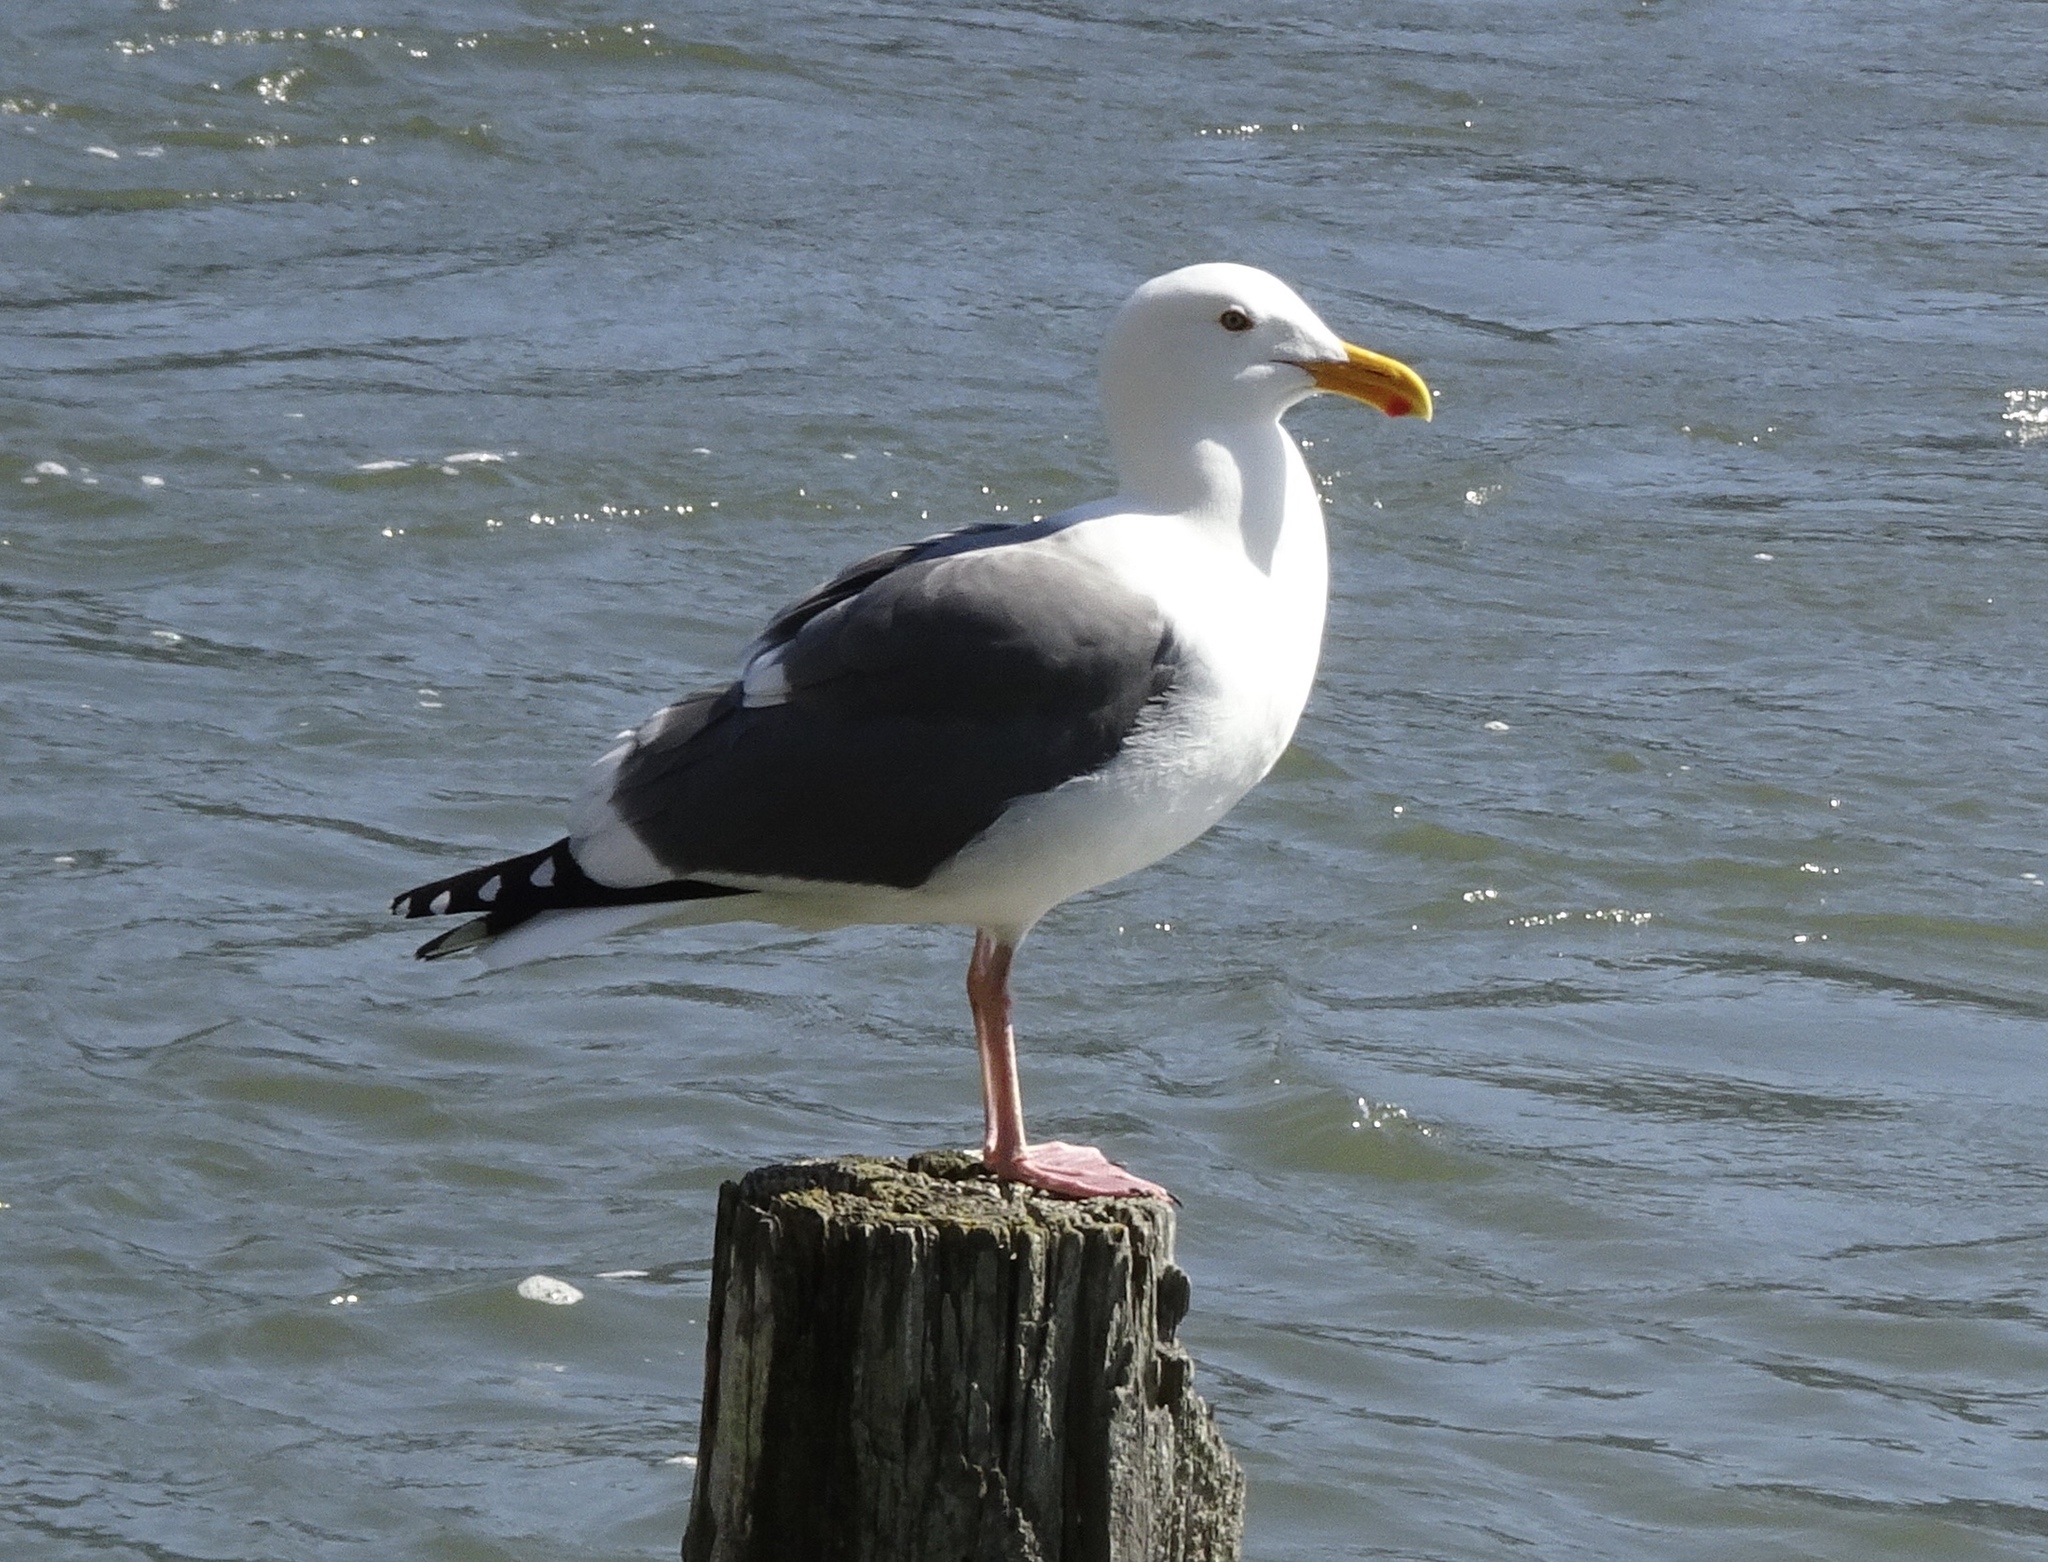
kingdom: Animalia
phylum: Chordata
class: Aves
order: Charadriiformes
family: Laridae
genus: Larus
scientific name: Larus occidentalis
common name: Western gull
